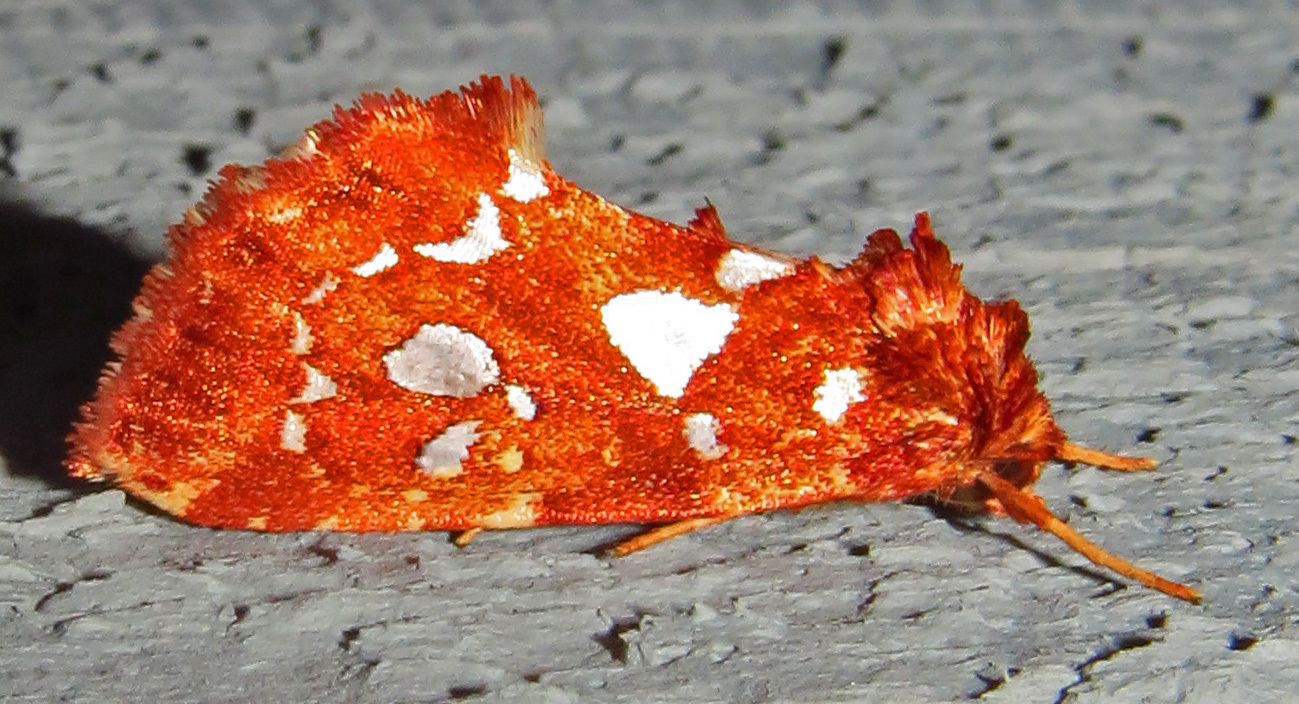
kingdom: Animalia
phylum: Arthropoda
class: Insecta
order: Lepidoptera
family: Noctuidae
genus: Callopistria
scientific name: Callopistria cordata
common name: Silver-spotted fern moth
